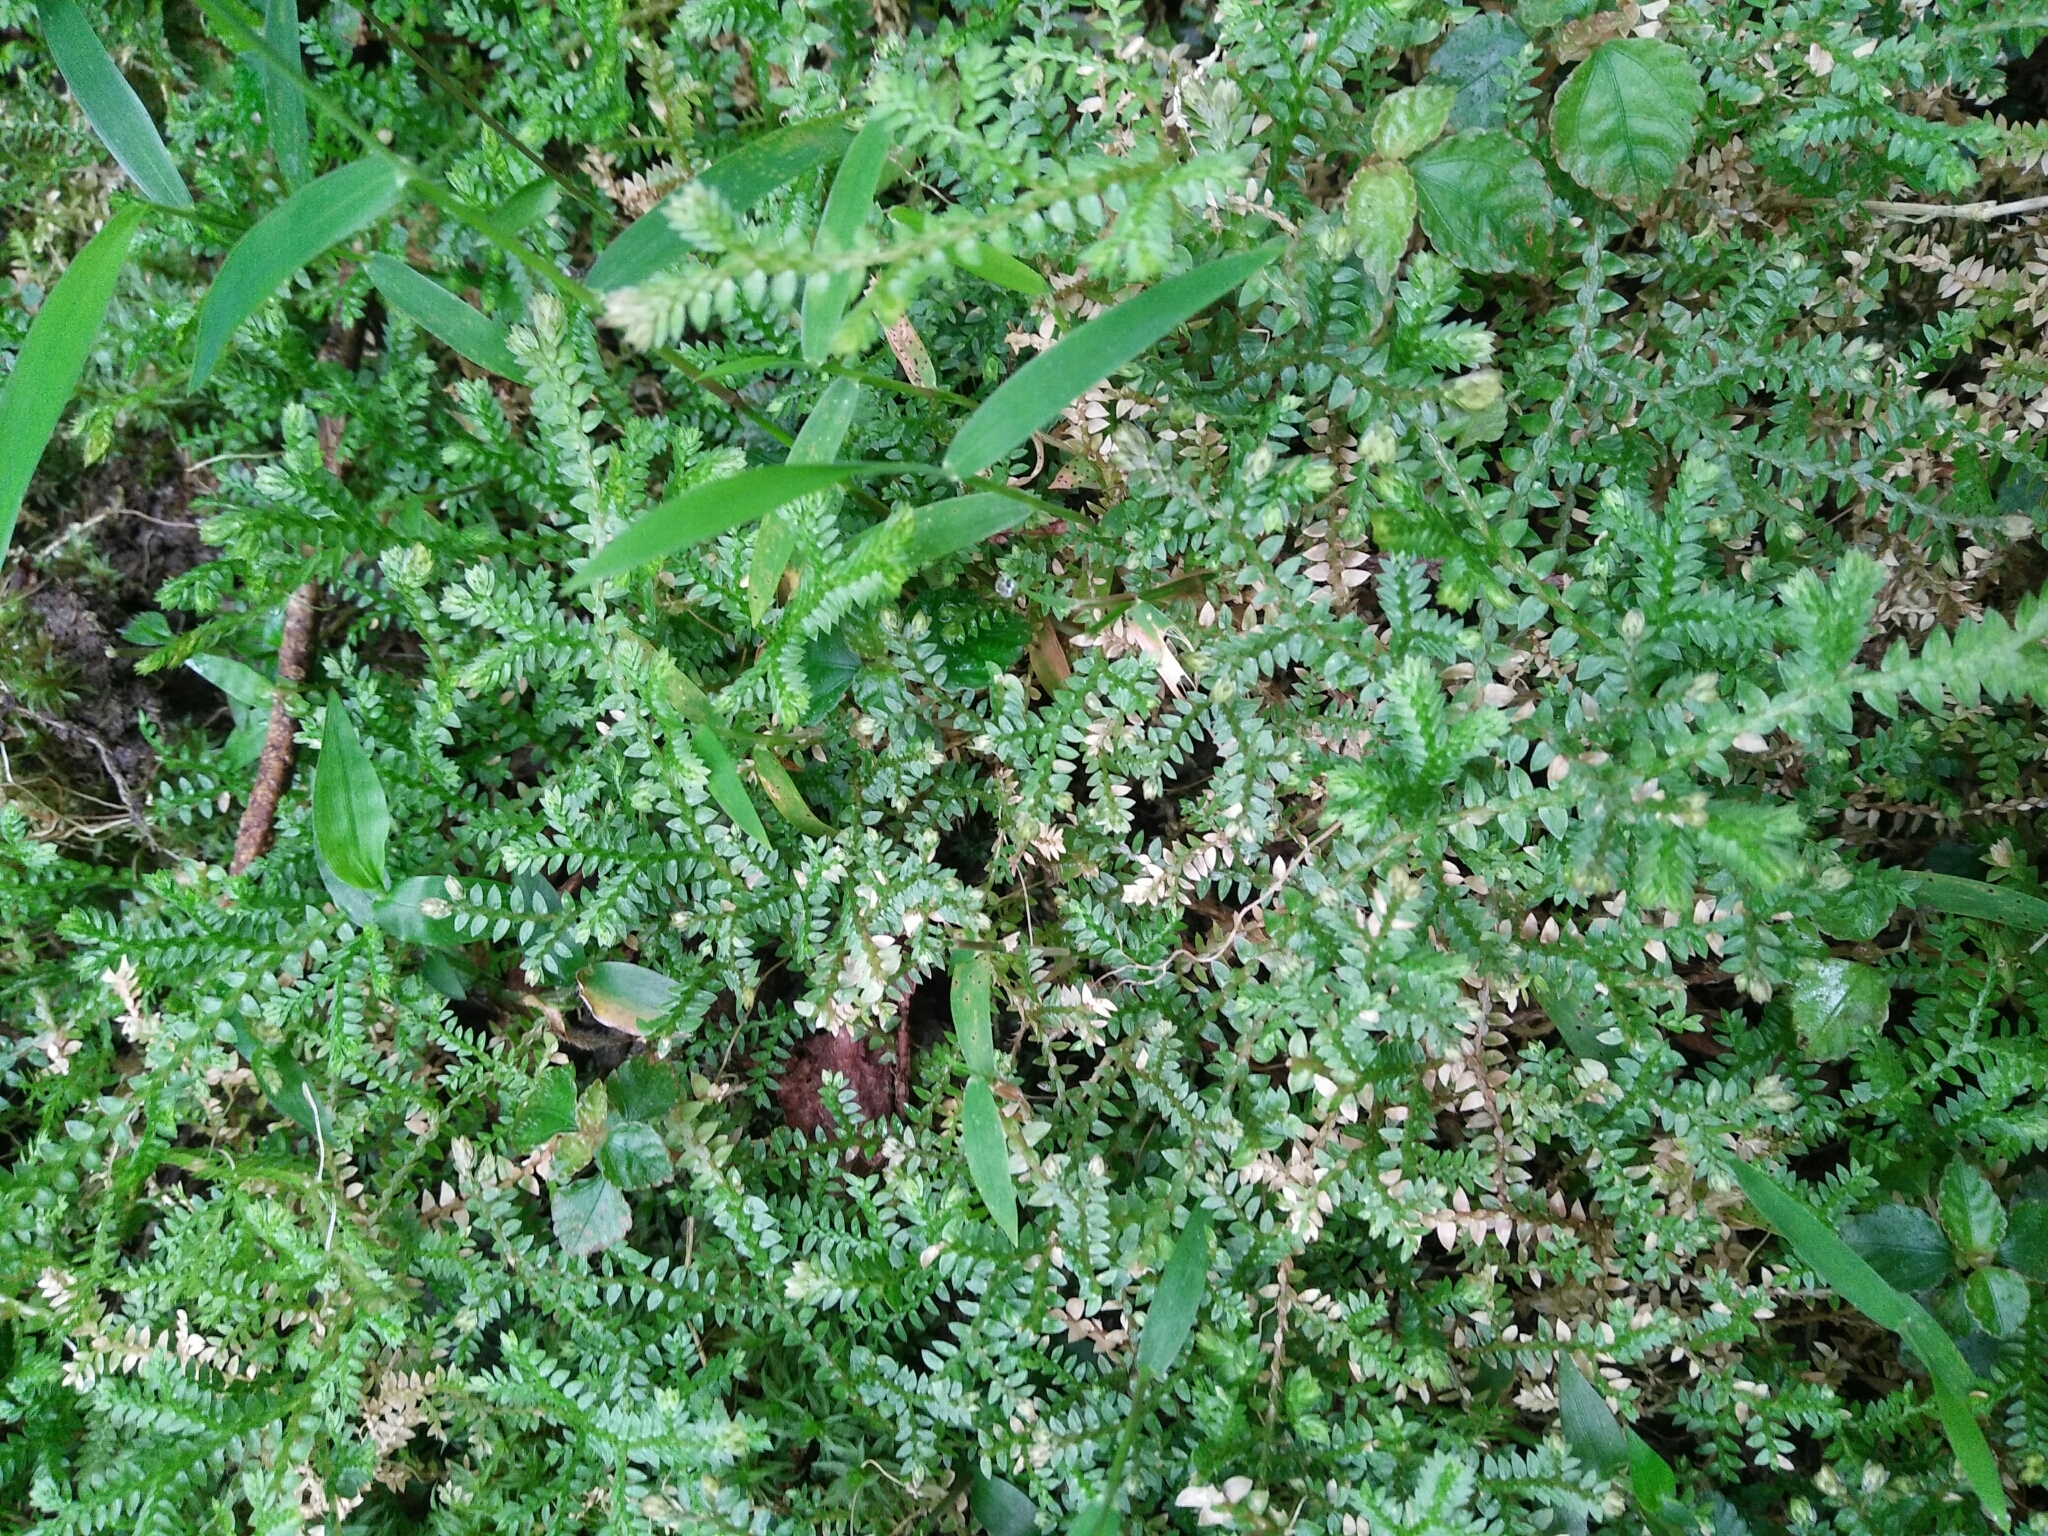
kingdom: Plantae
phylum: Tracheophyta
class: Lycopodiopsida
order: Selaginellales
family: Selaginellaceae
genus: Selaginella
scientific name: Selaginella remotifolia
